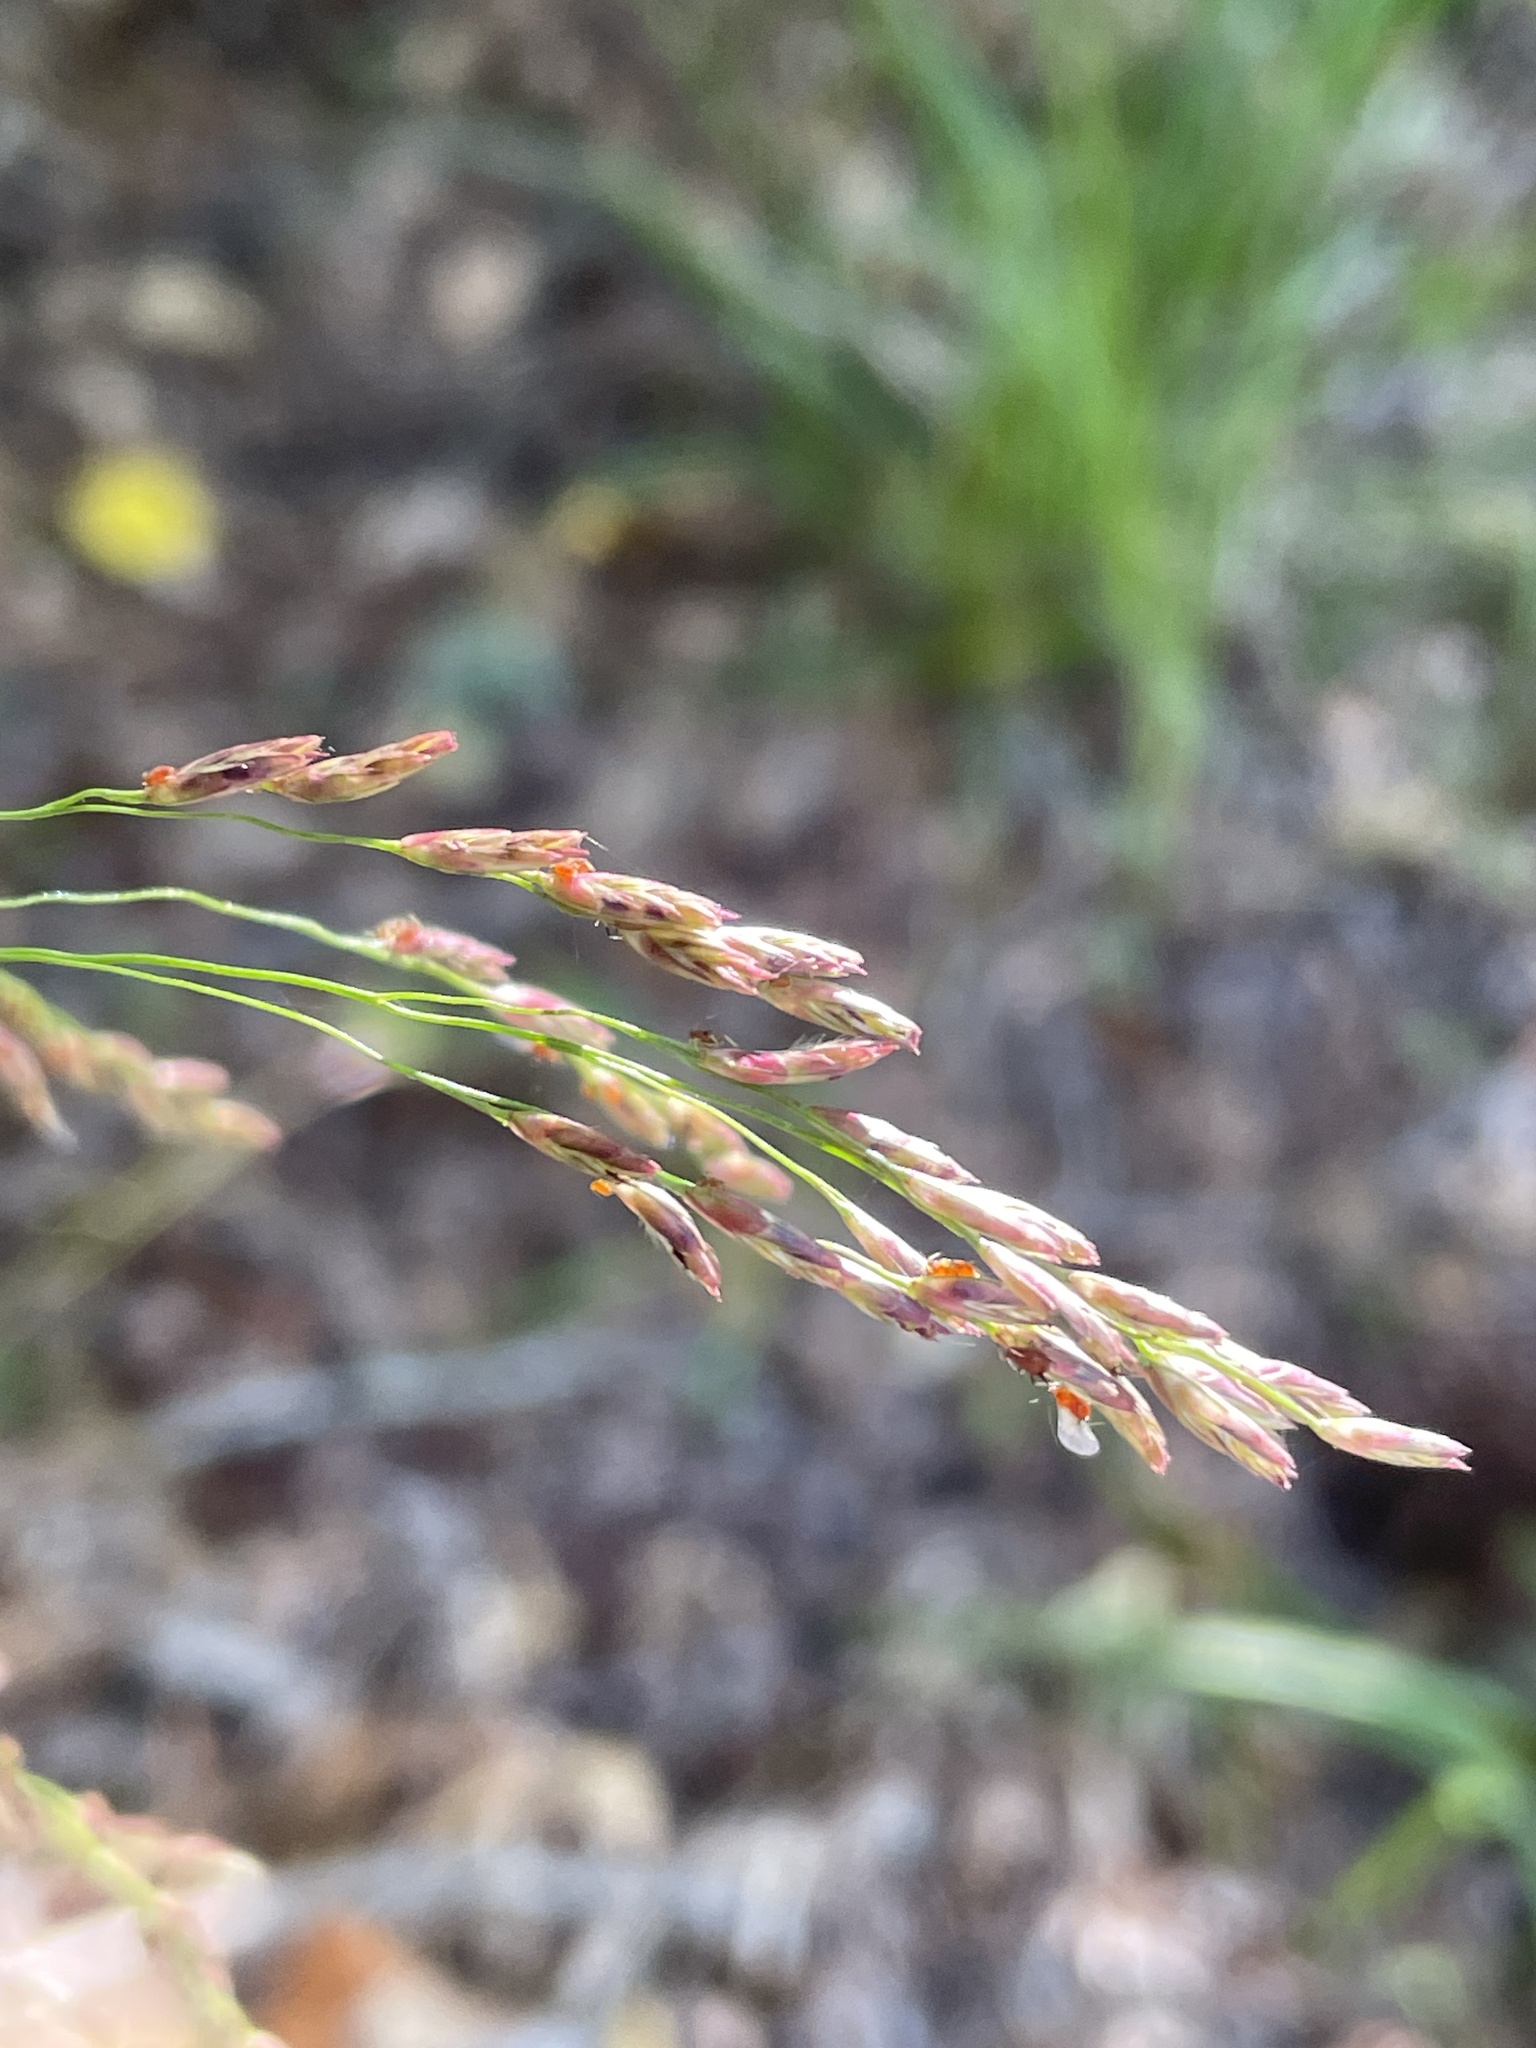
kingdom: Plantae
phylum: Tracheophyta
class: Liliopsida
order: Poales
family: Poaceae
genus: Tridens
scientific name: Tridens flavus
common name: Purpletop
